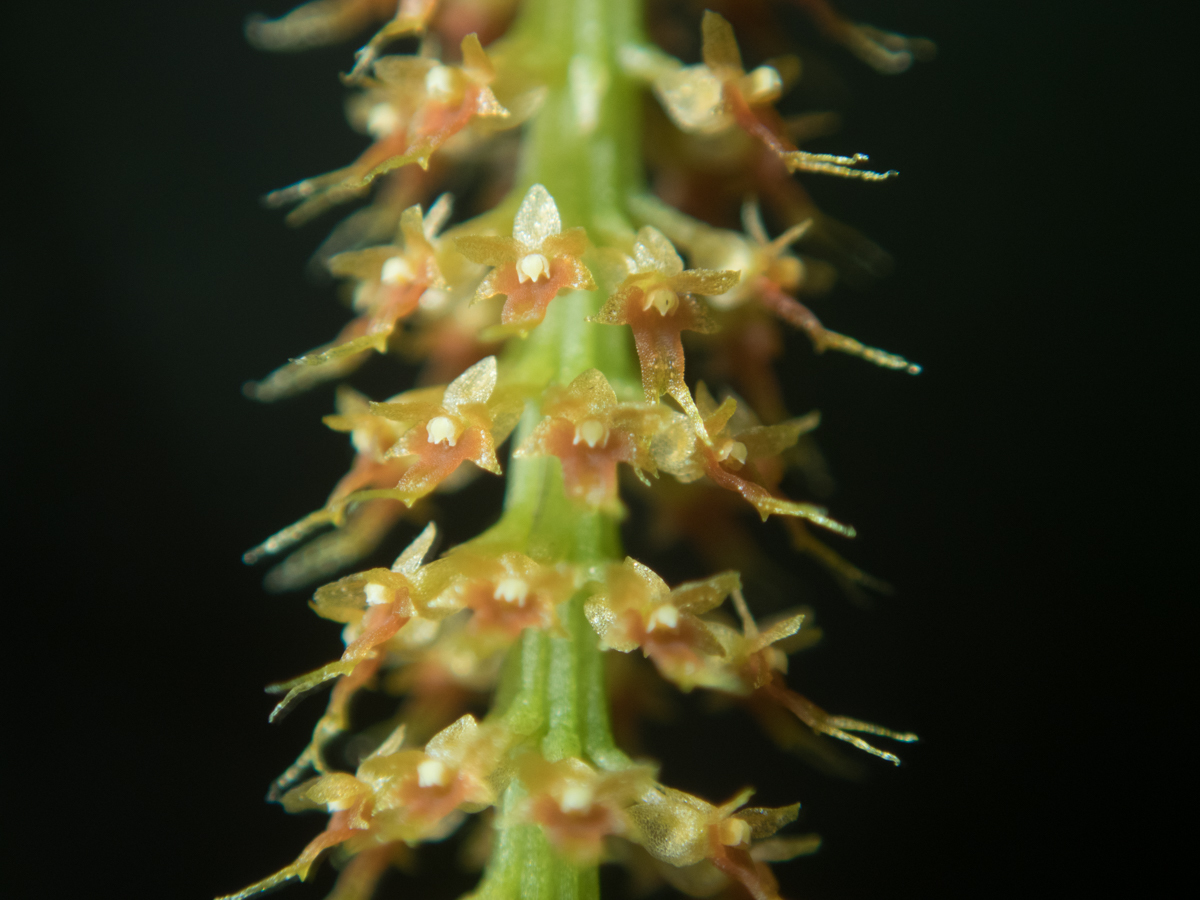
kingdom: Plantae
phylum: Tracheophyta
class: Liliopsida
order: Asparagales
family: Orchidaceae
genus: Oberonia
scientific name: Oberonia falcata
